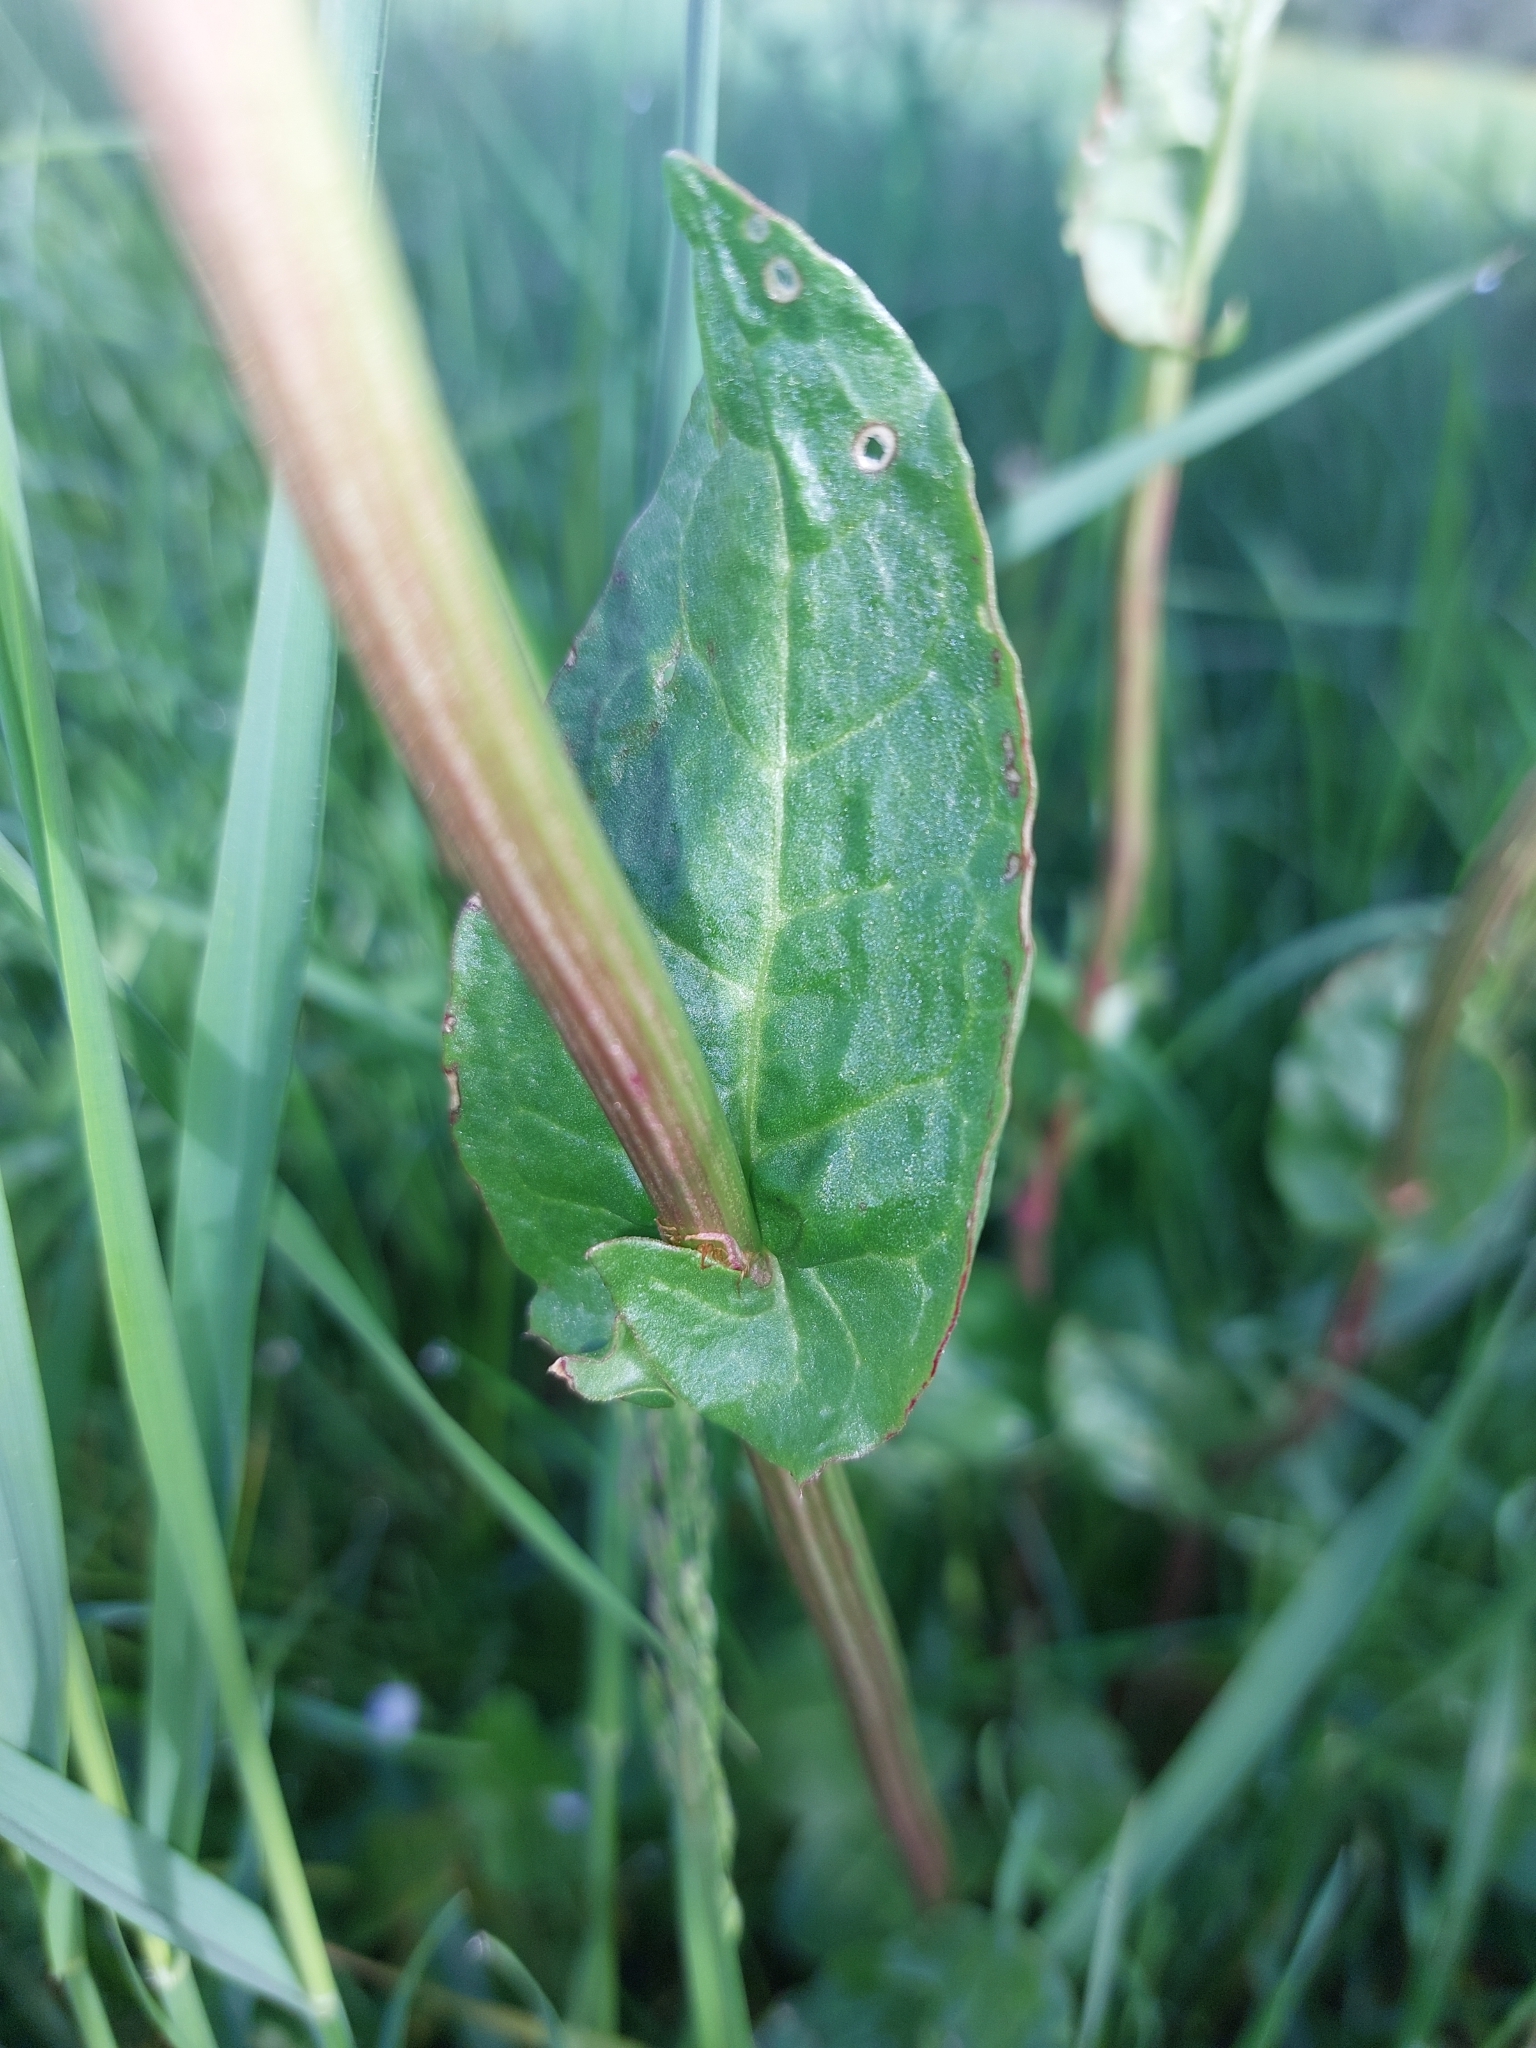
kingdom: Plantae
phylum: Tracheophyta
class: Magnoliopsida
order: Caryophyllales
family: Polygonaceae
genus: Rumex
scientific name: Rumex acetosa
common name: Garden sorrel
